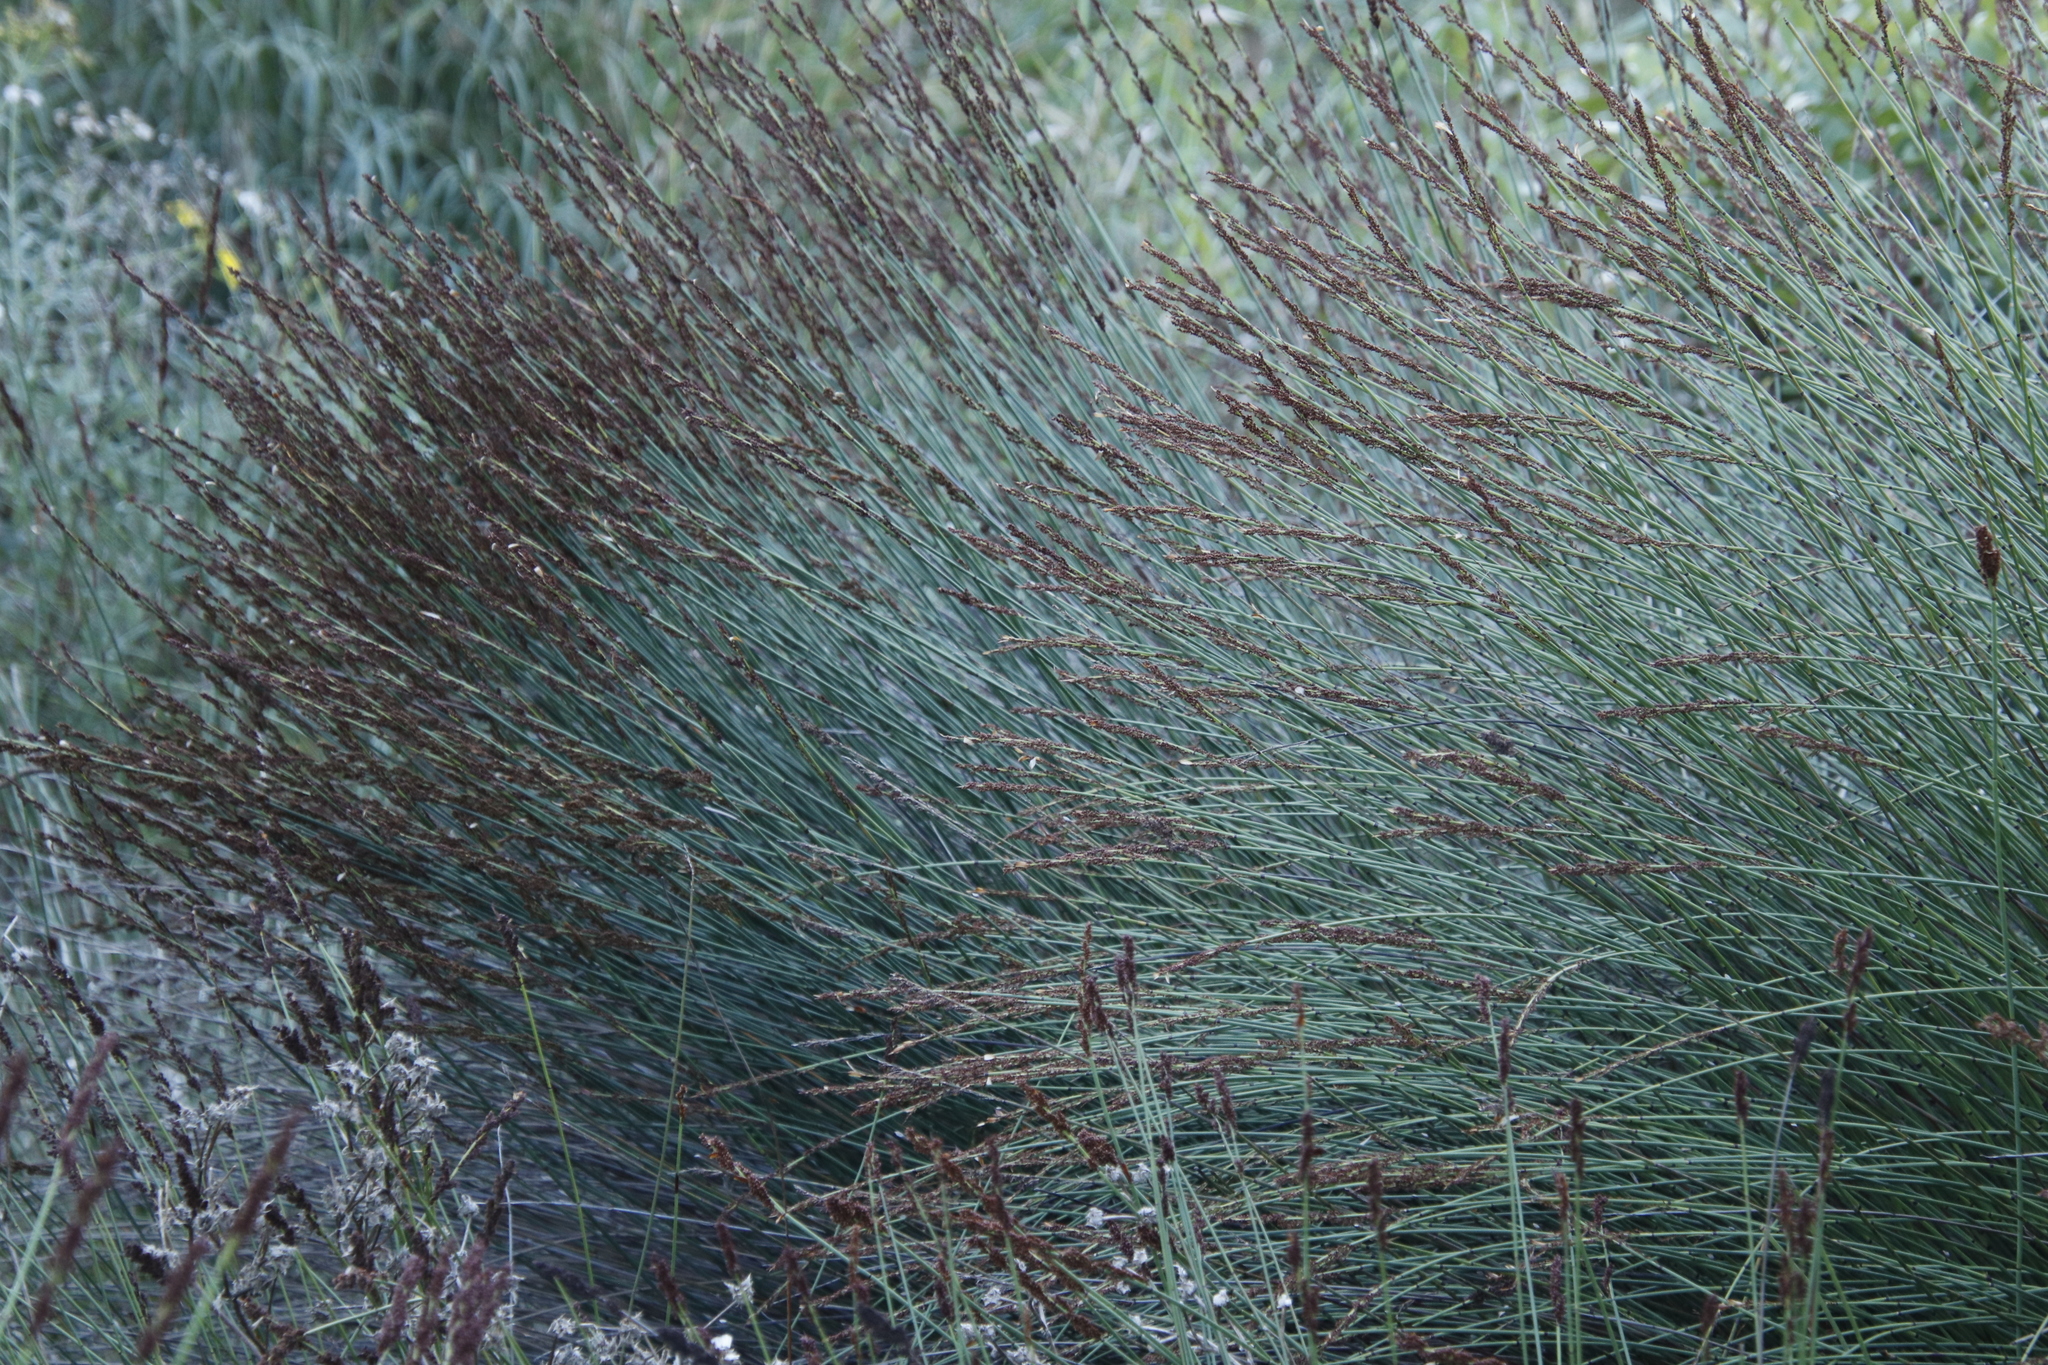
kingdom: Plantae
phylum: Tracheophyta
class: Liliopsida
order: Poales
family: Restionaceae
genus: Elegia
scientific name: Elegia tectorum
